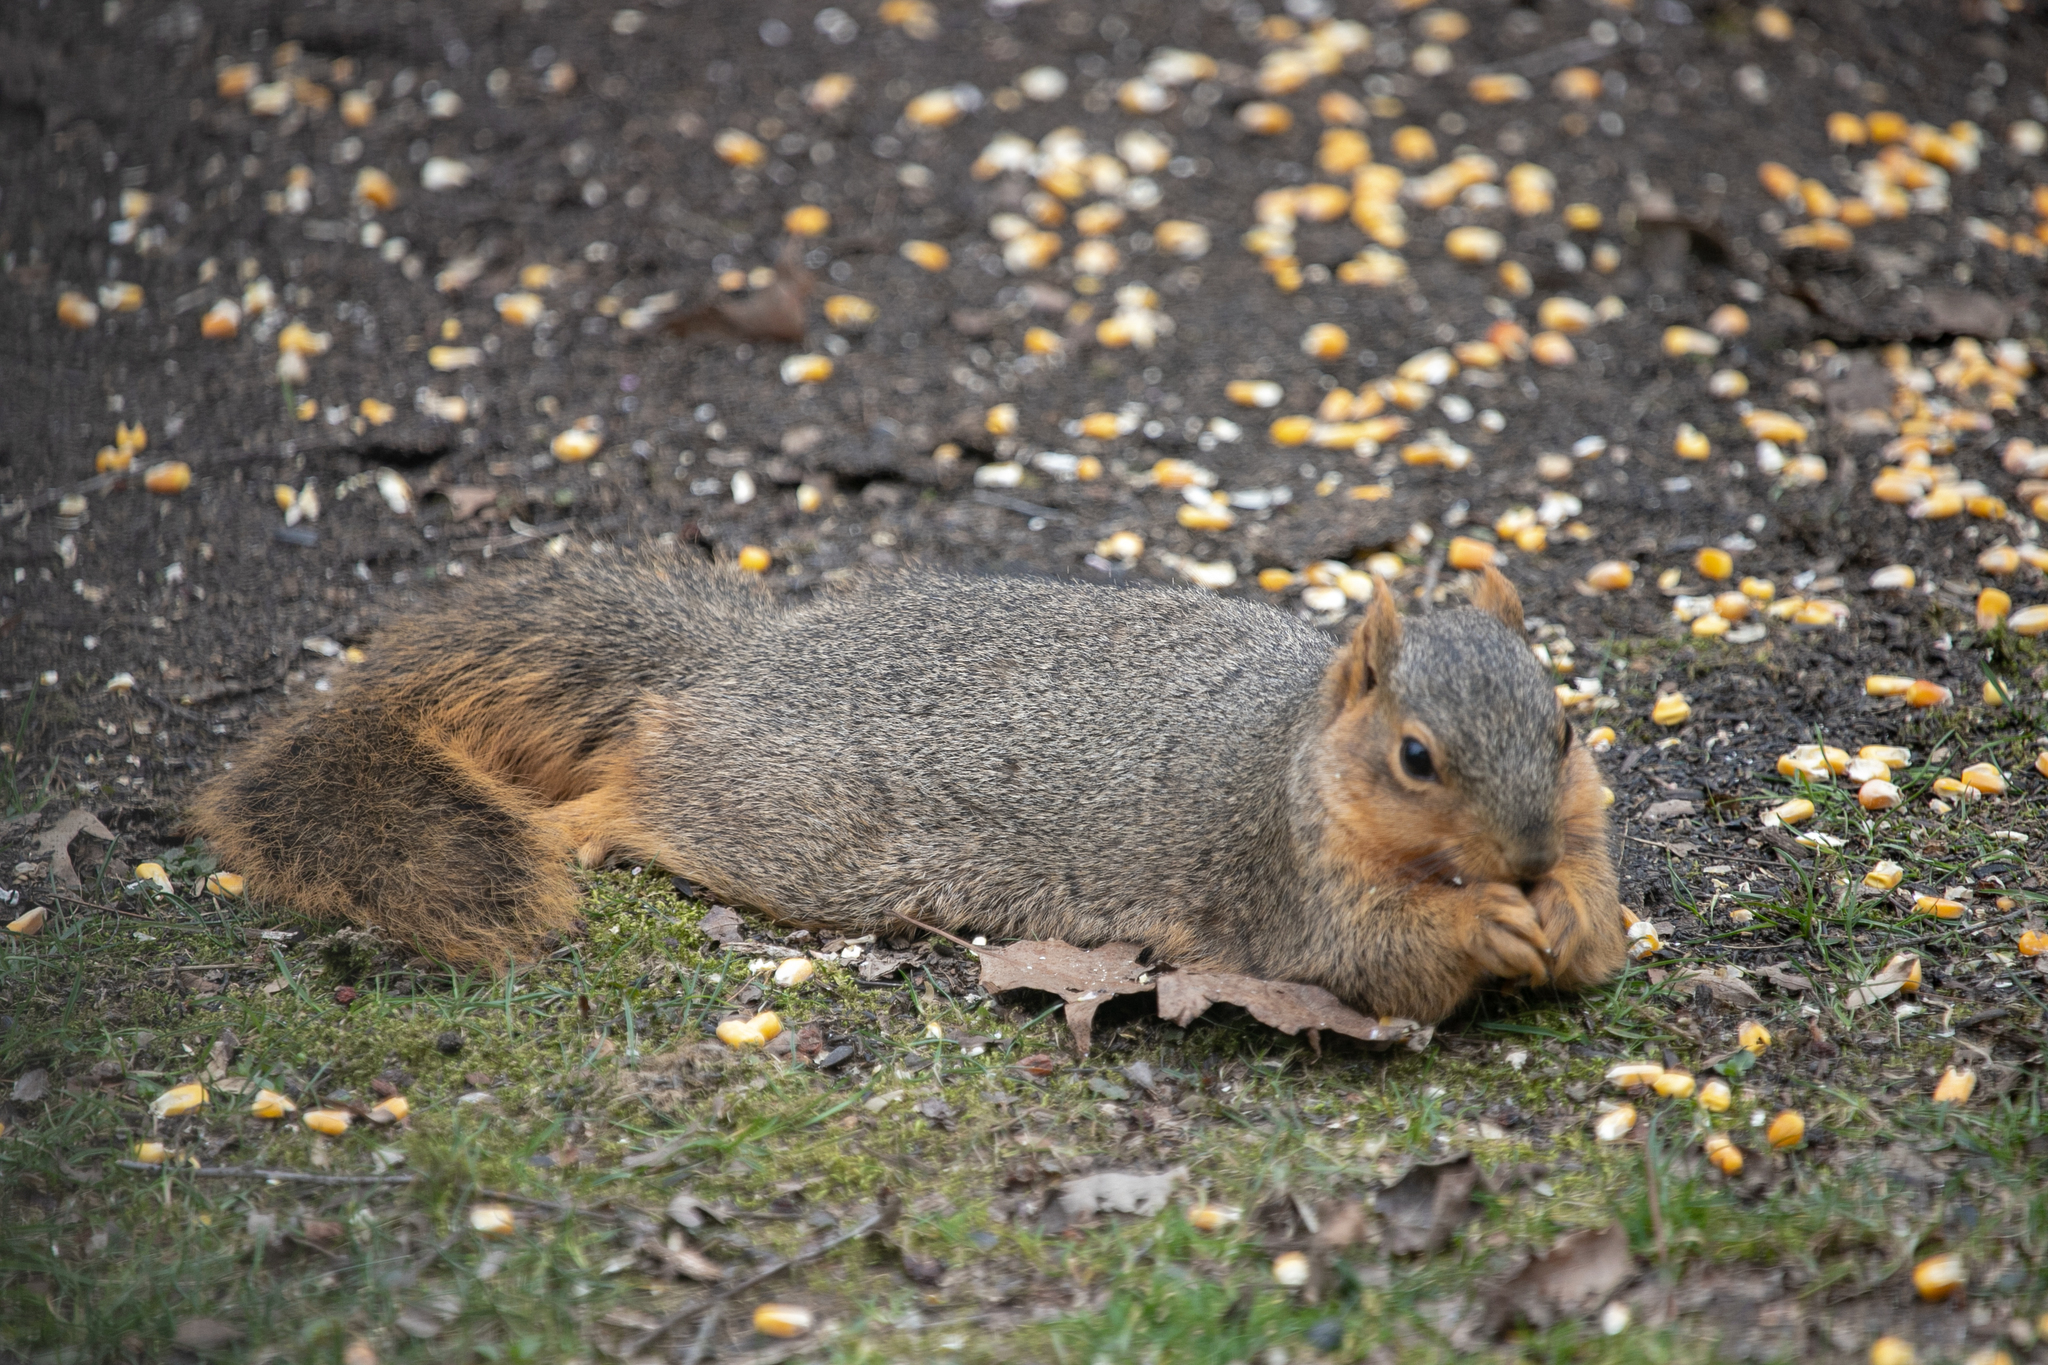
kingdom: Animalia
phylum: Chordata
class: Mammalia
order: Rodentia
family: Sciuridae
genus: Sciurus
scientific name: Sciurus niger
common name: Fox squirrel
